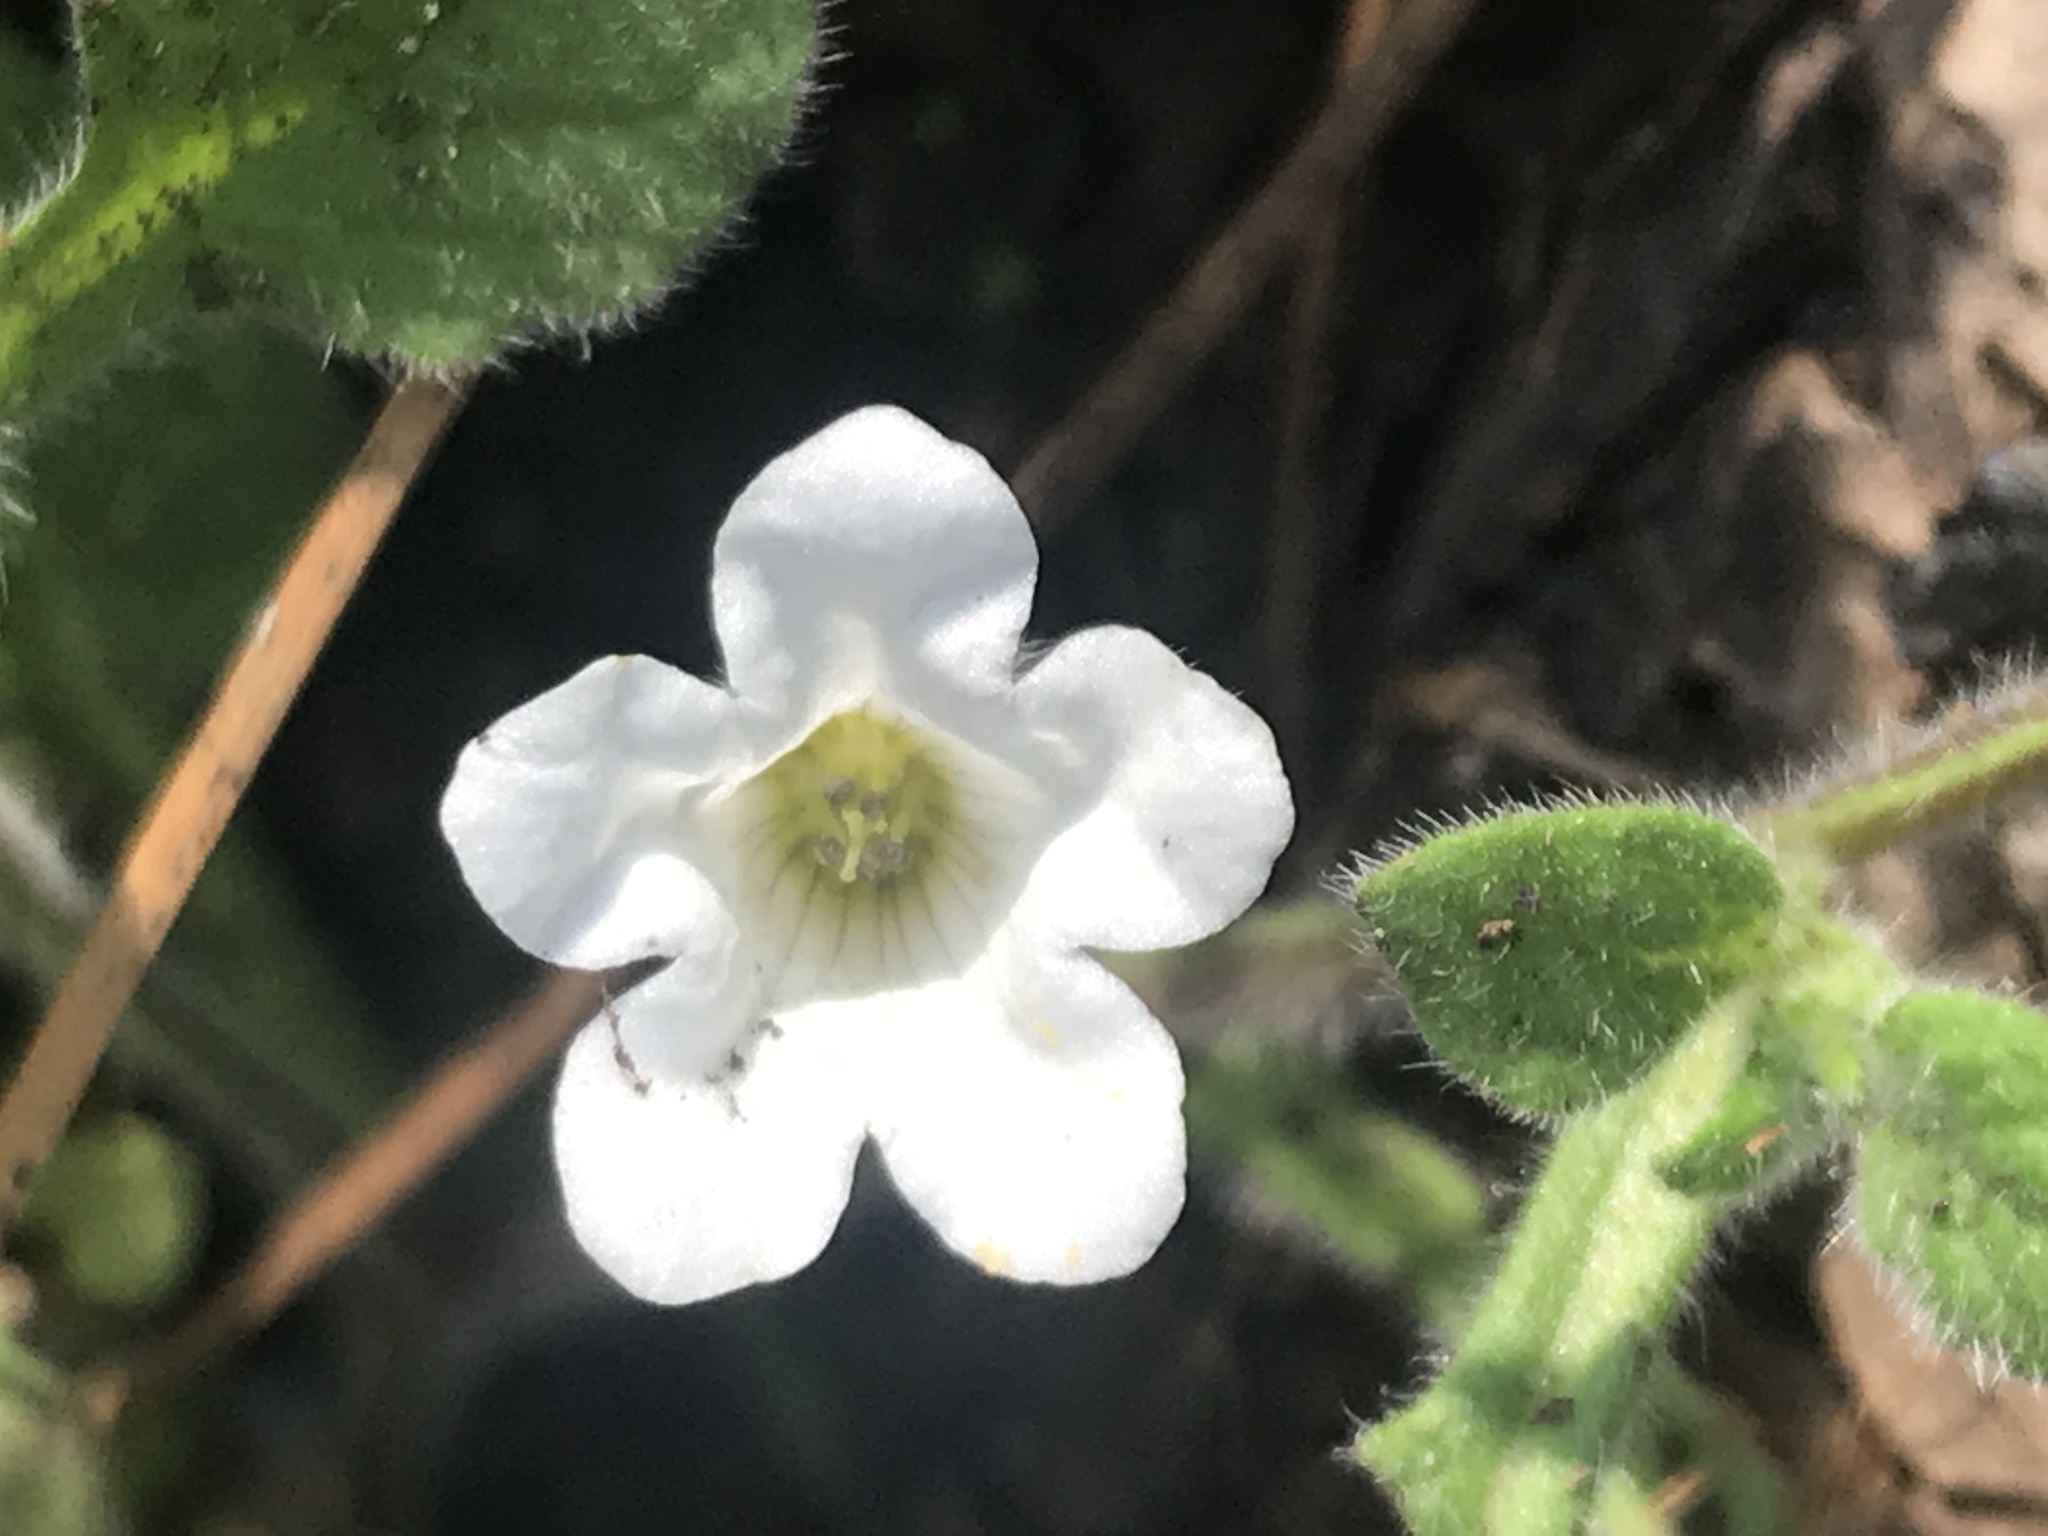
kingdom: Plantae
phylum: Tracheophyta
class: Magnoliopsida
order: Boraginales
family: Namaceae
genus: Nama
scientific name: Nama jamaicensis
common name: Jamaicanweed
